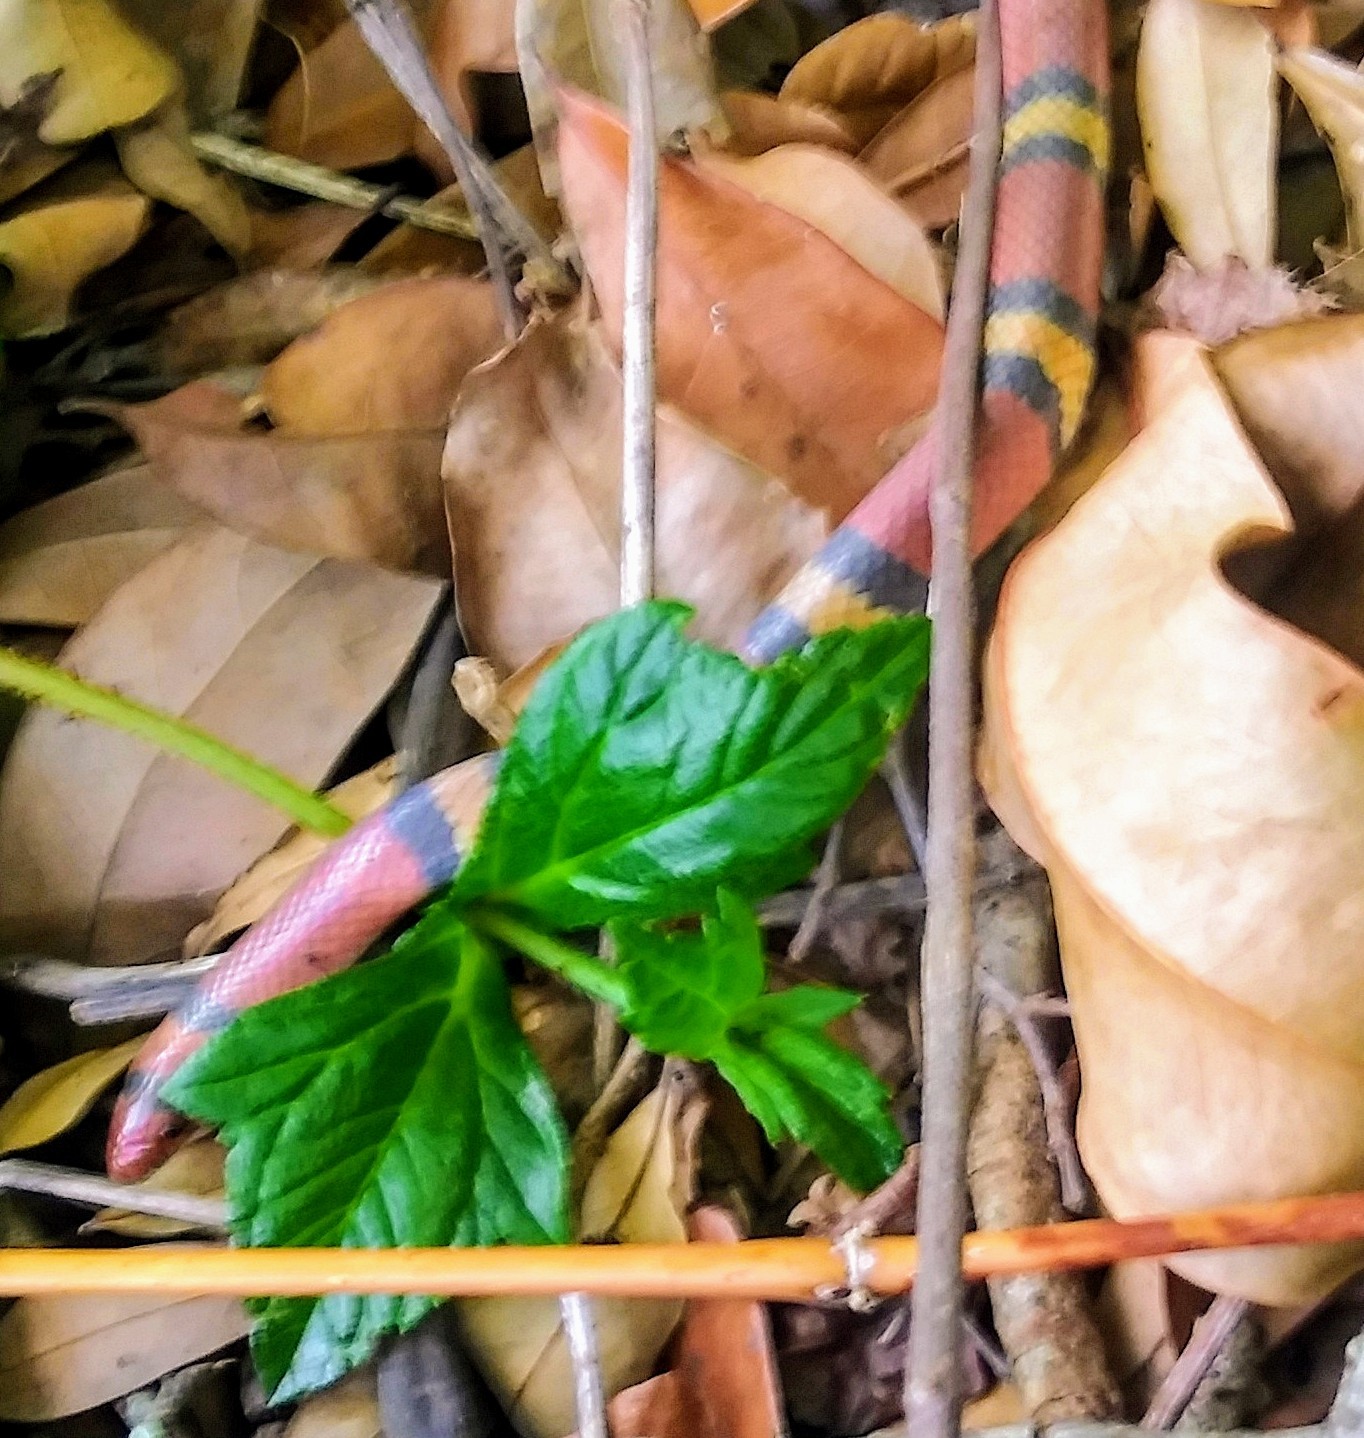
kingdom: Animalia
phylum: Chordata
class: Squamata
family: Colubridae
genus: Cemophora
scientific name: Cemophora coccinea
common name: Scarlet snake
